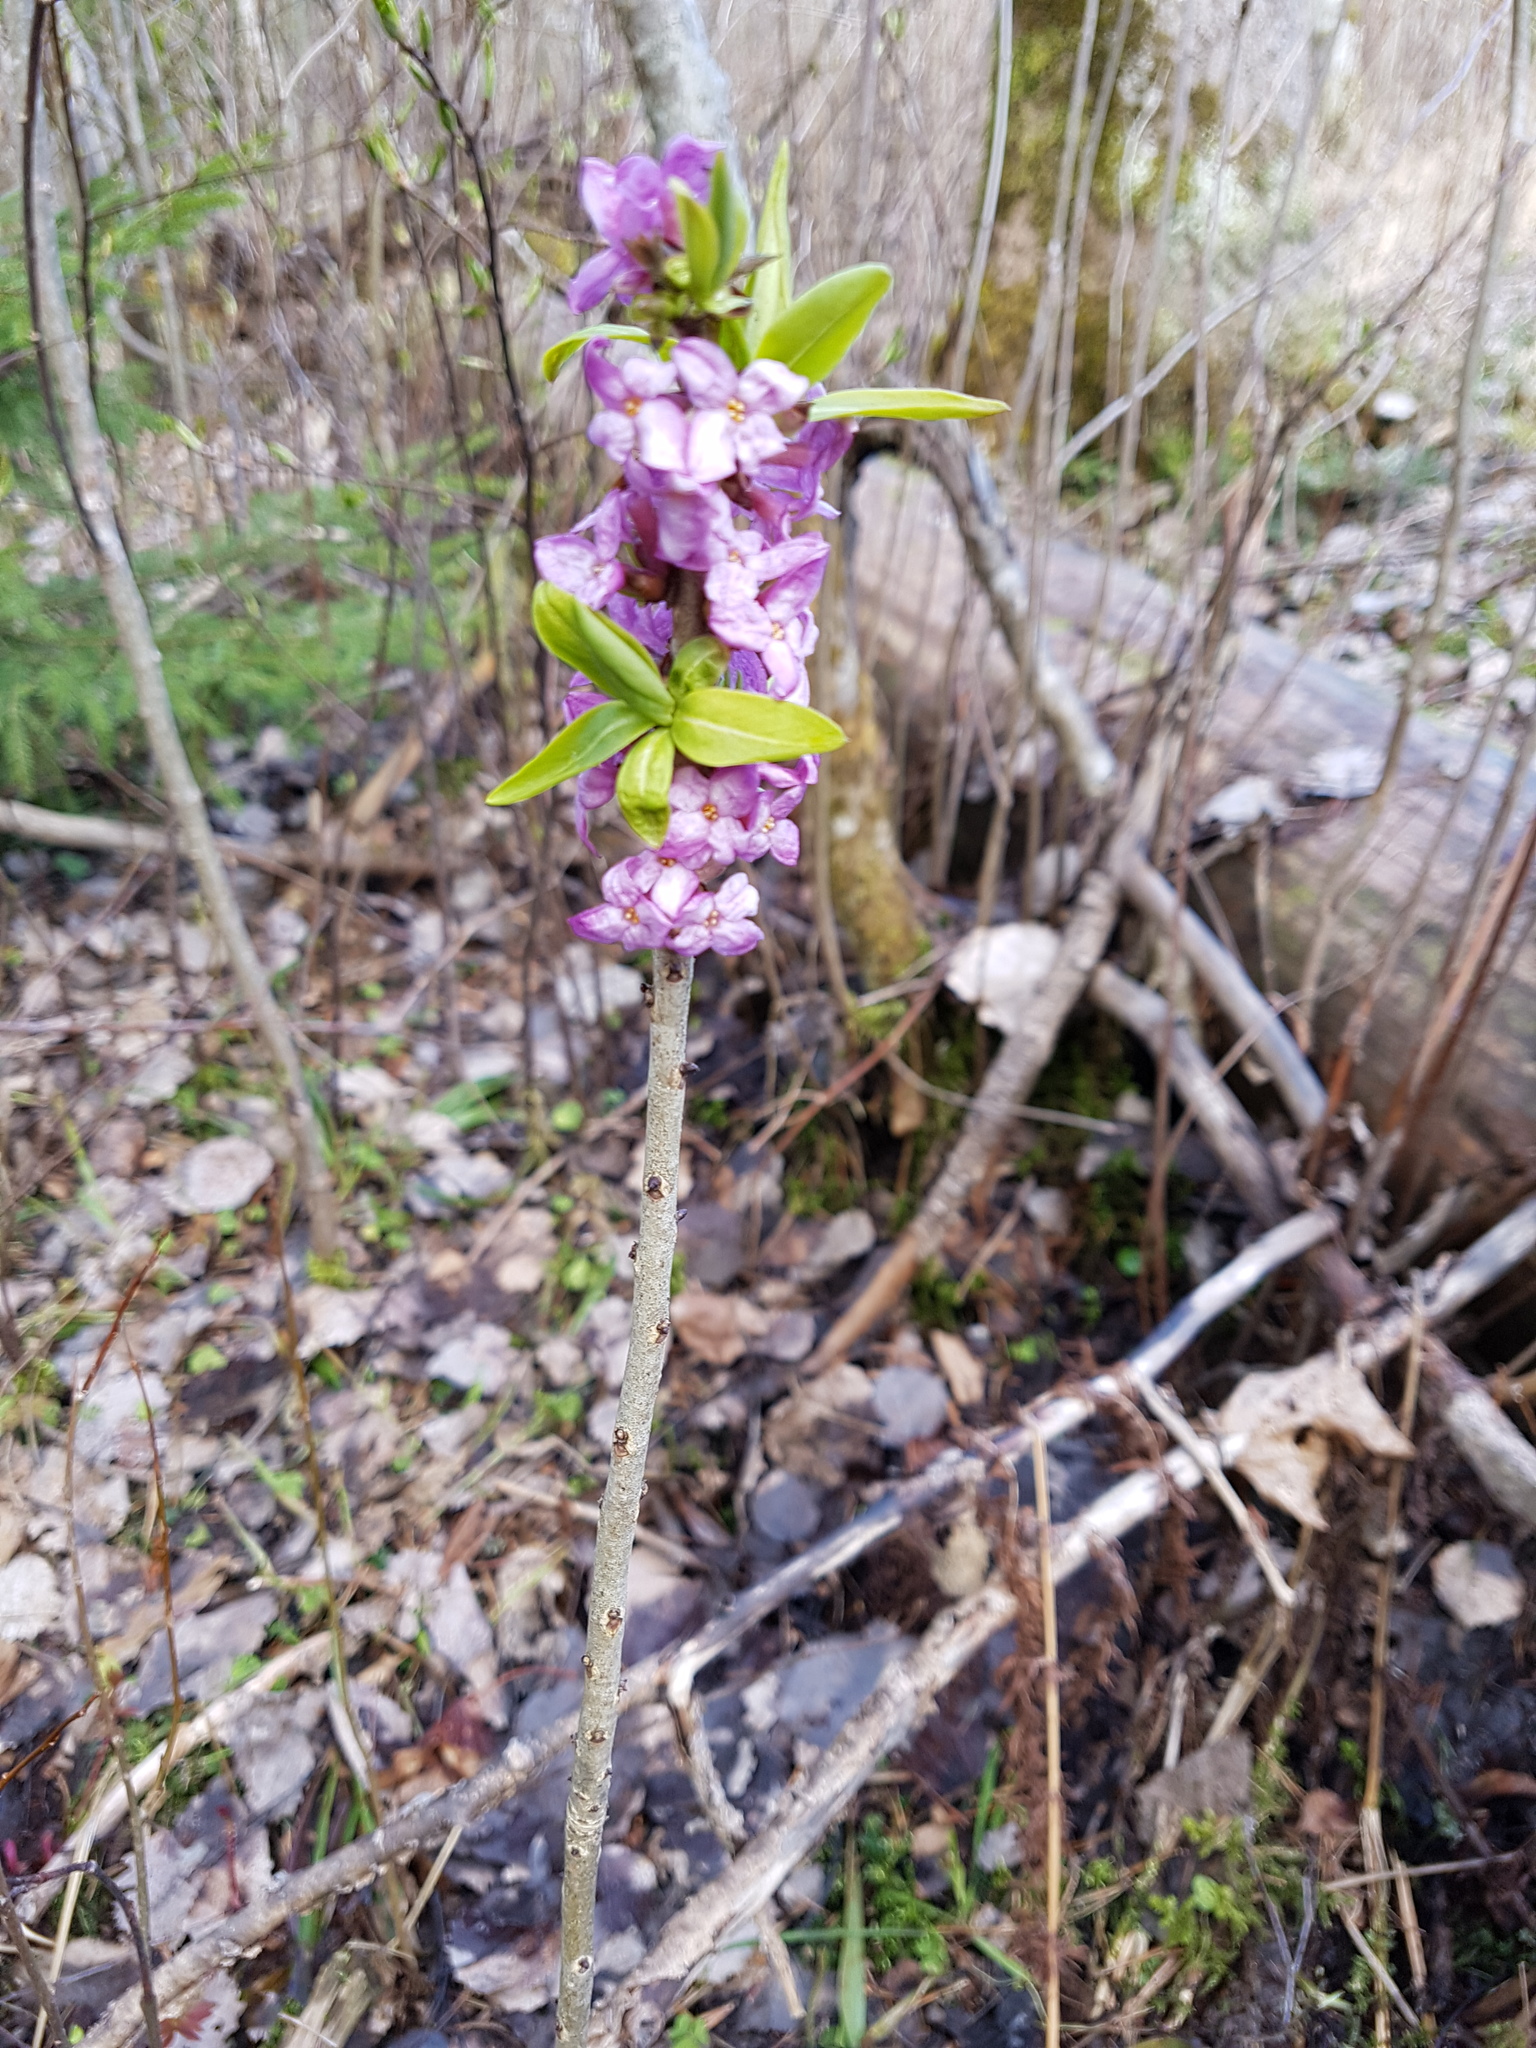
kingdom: Plantae
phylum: Tracheophyta
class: Magnoliopsida
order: Malvales
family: Thymelaeaceae
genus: Daphne
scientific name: Daphne mezereum
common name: Mezereon
